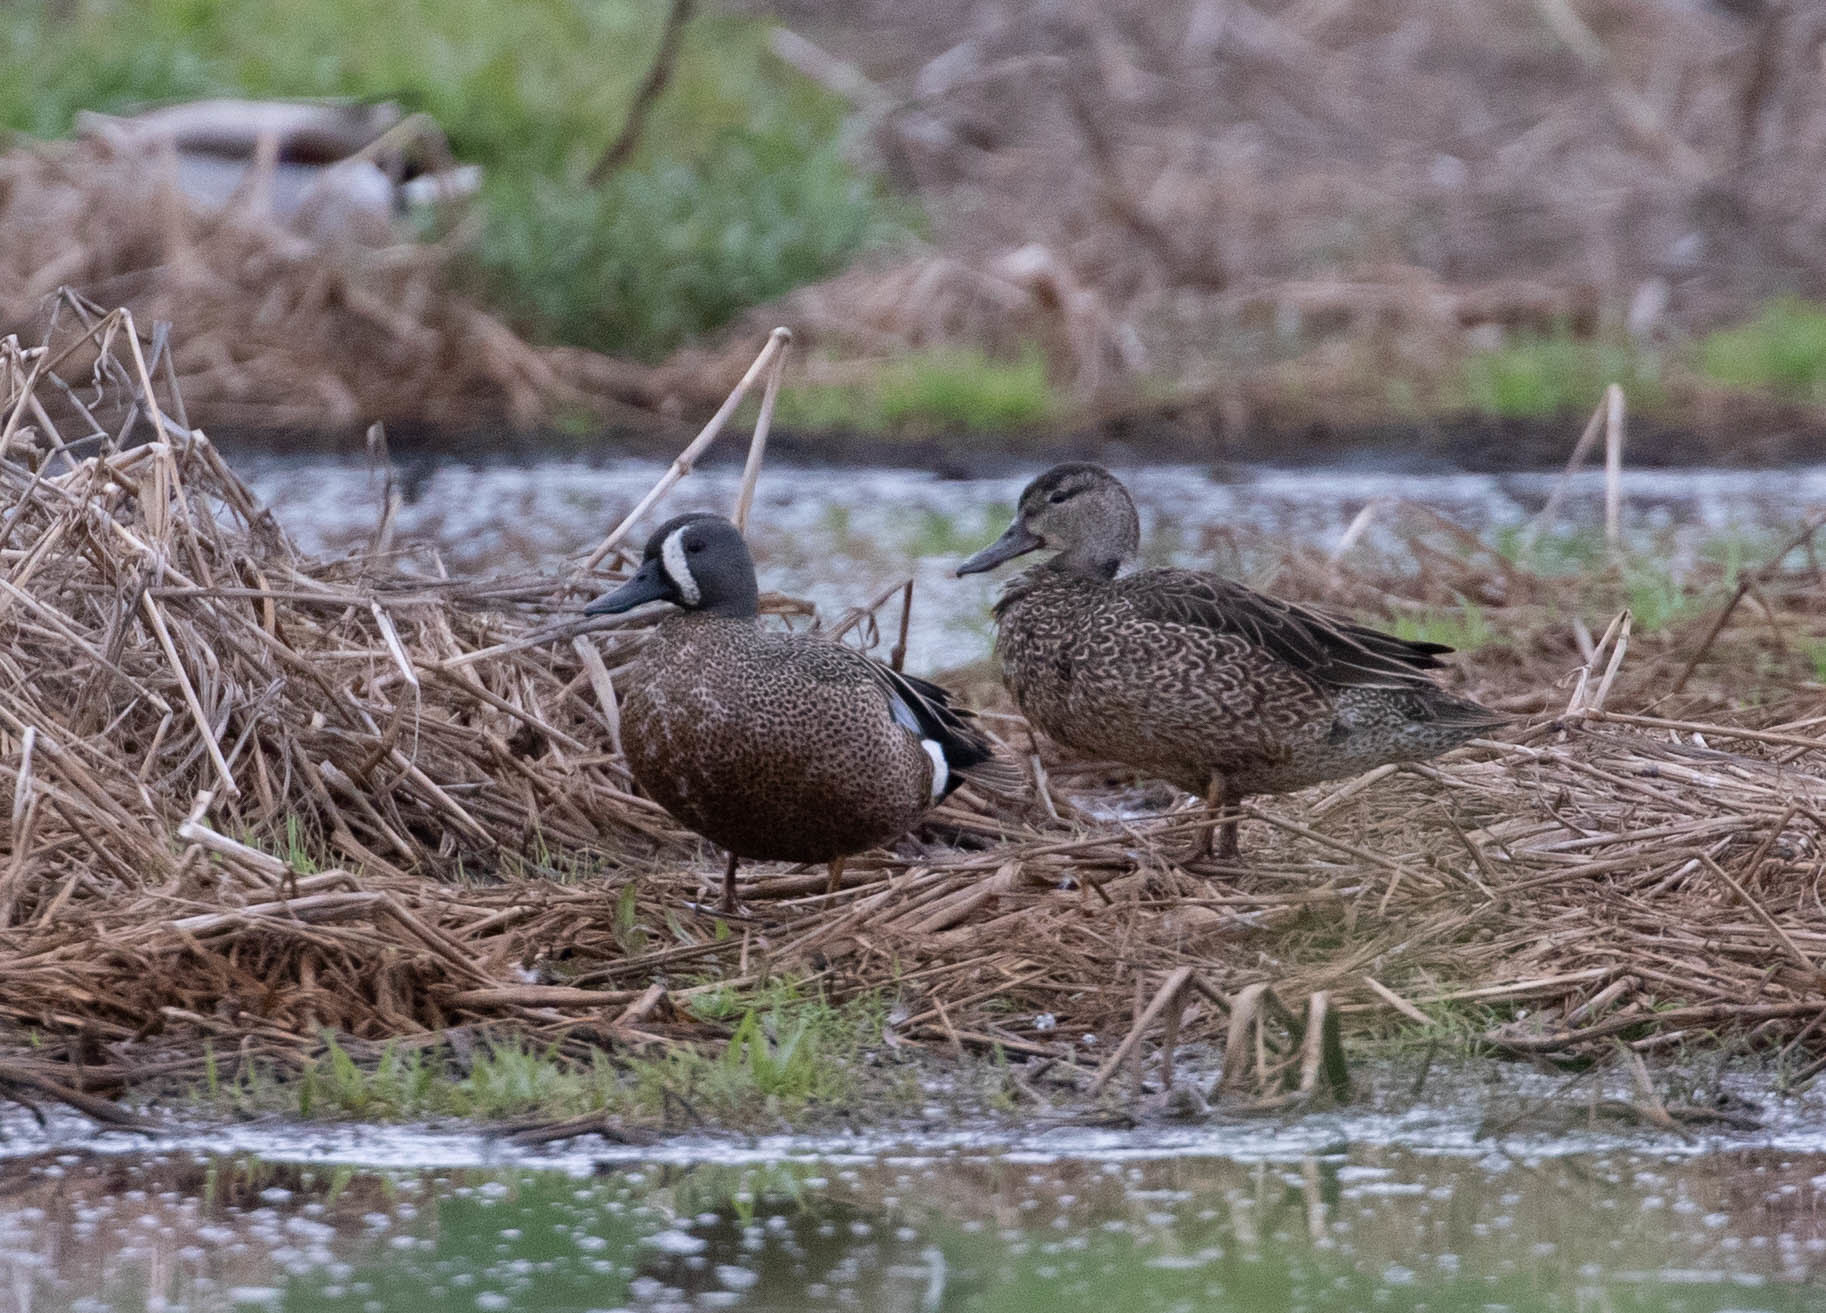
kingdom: Animalia
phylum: Chordata
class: Aves
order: Anseriformes
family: Anatidae
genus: Spatula
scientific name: Spatula discors
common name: Blue-winged teal
